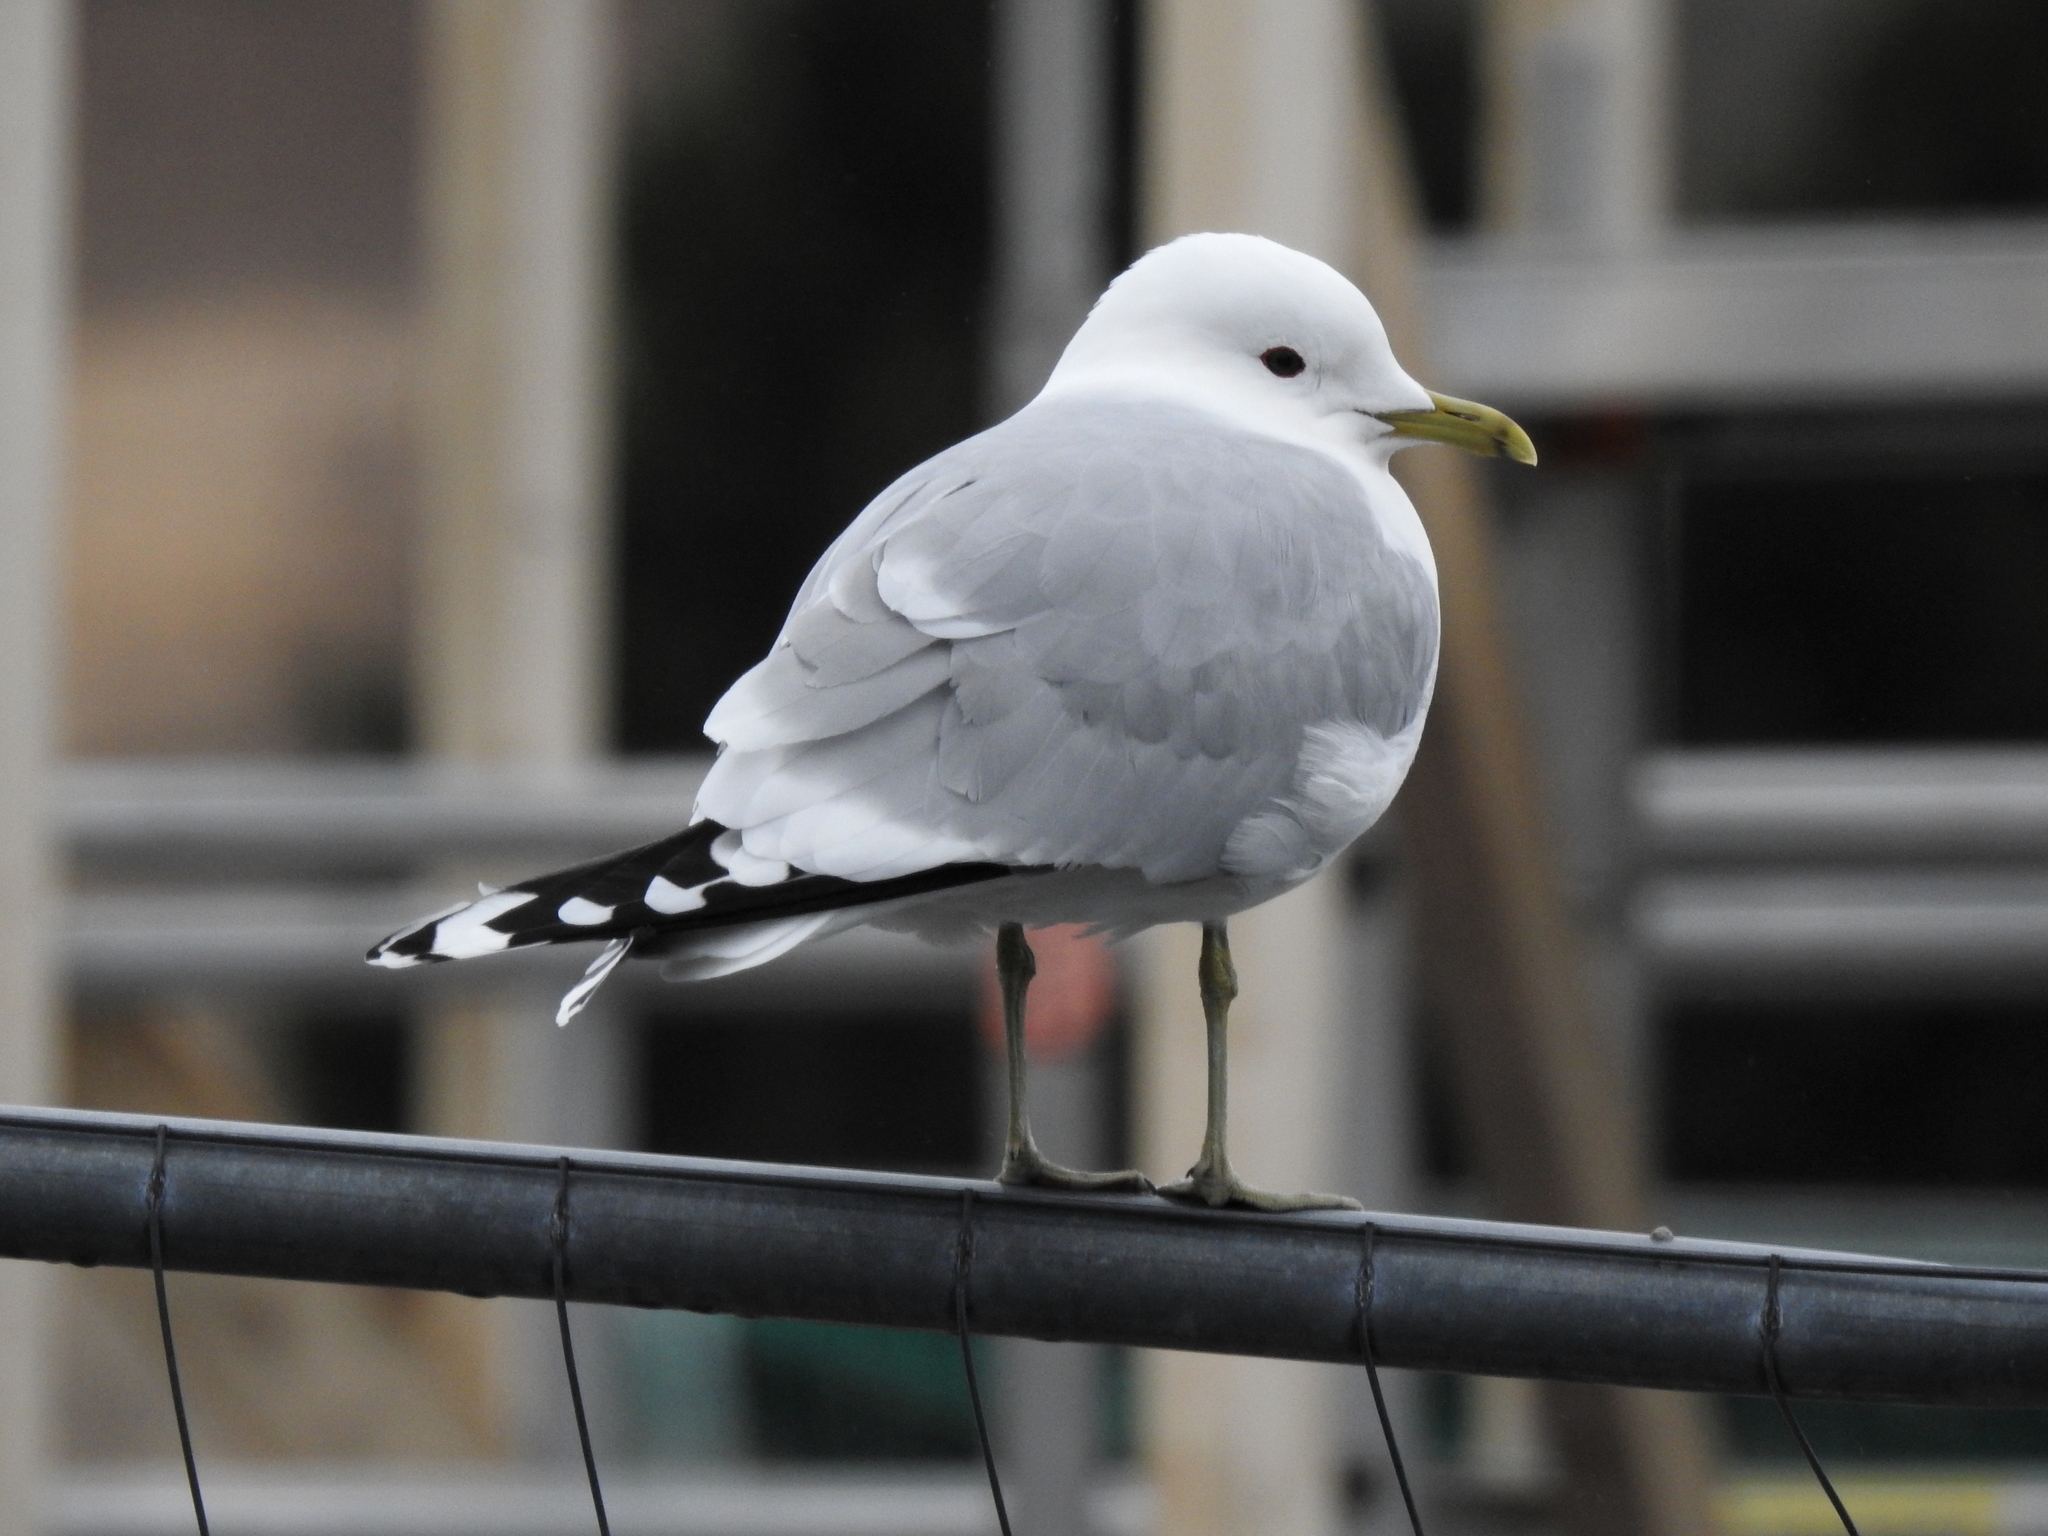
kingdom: Animalia
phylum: Chordata
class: Aves
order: Charadriiformes
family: Laridae
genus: Larus
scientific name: Larus canus
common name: Mew gull
